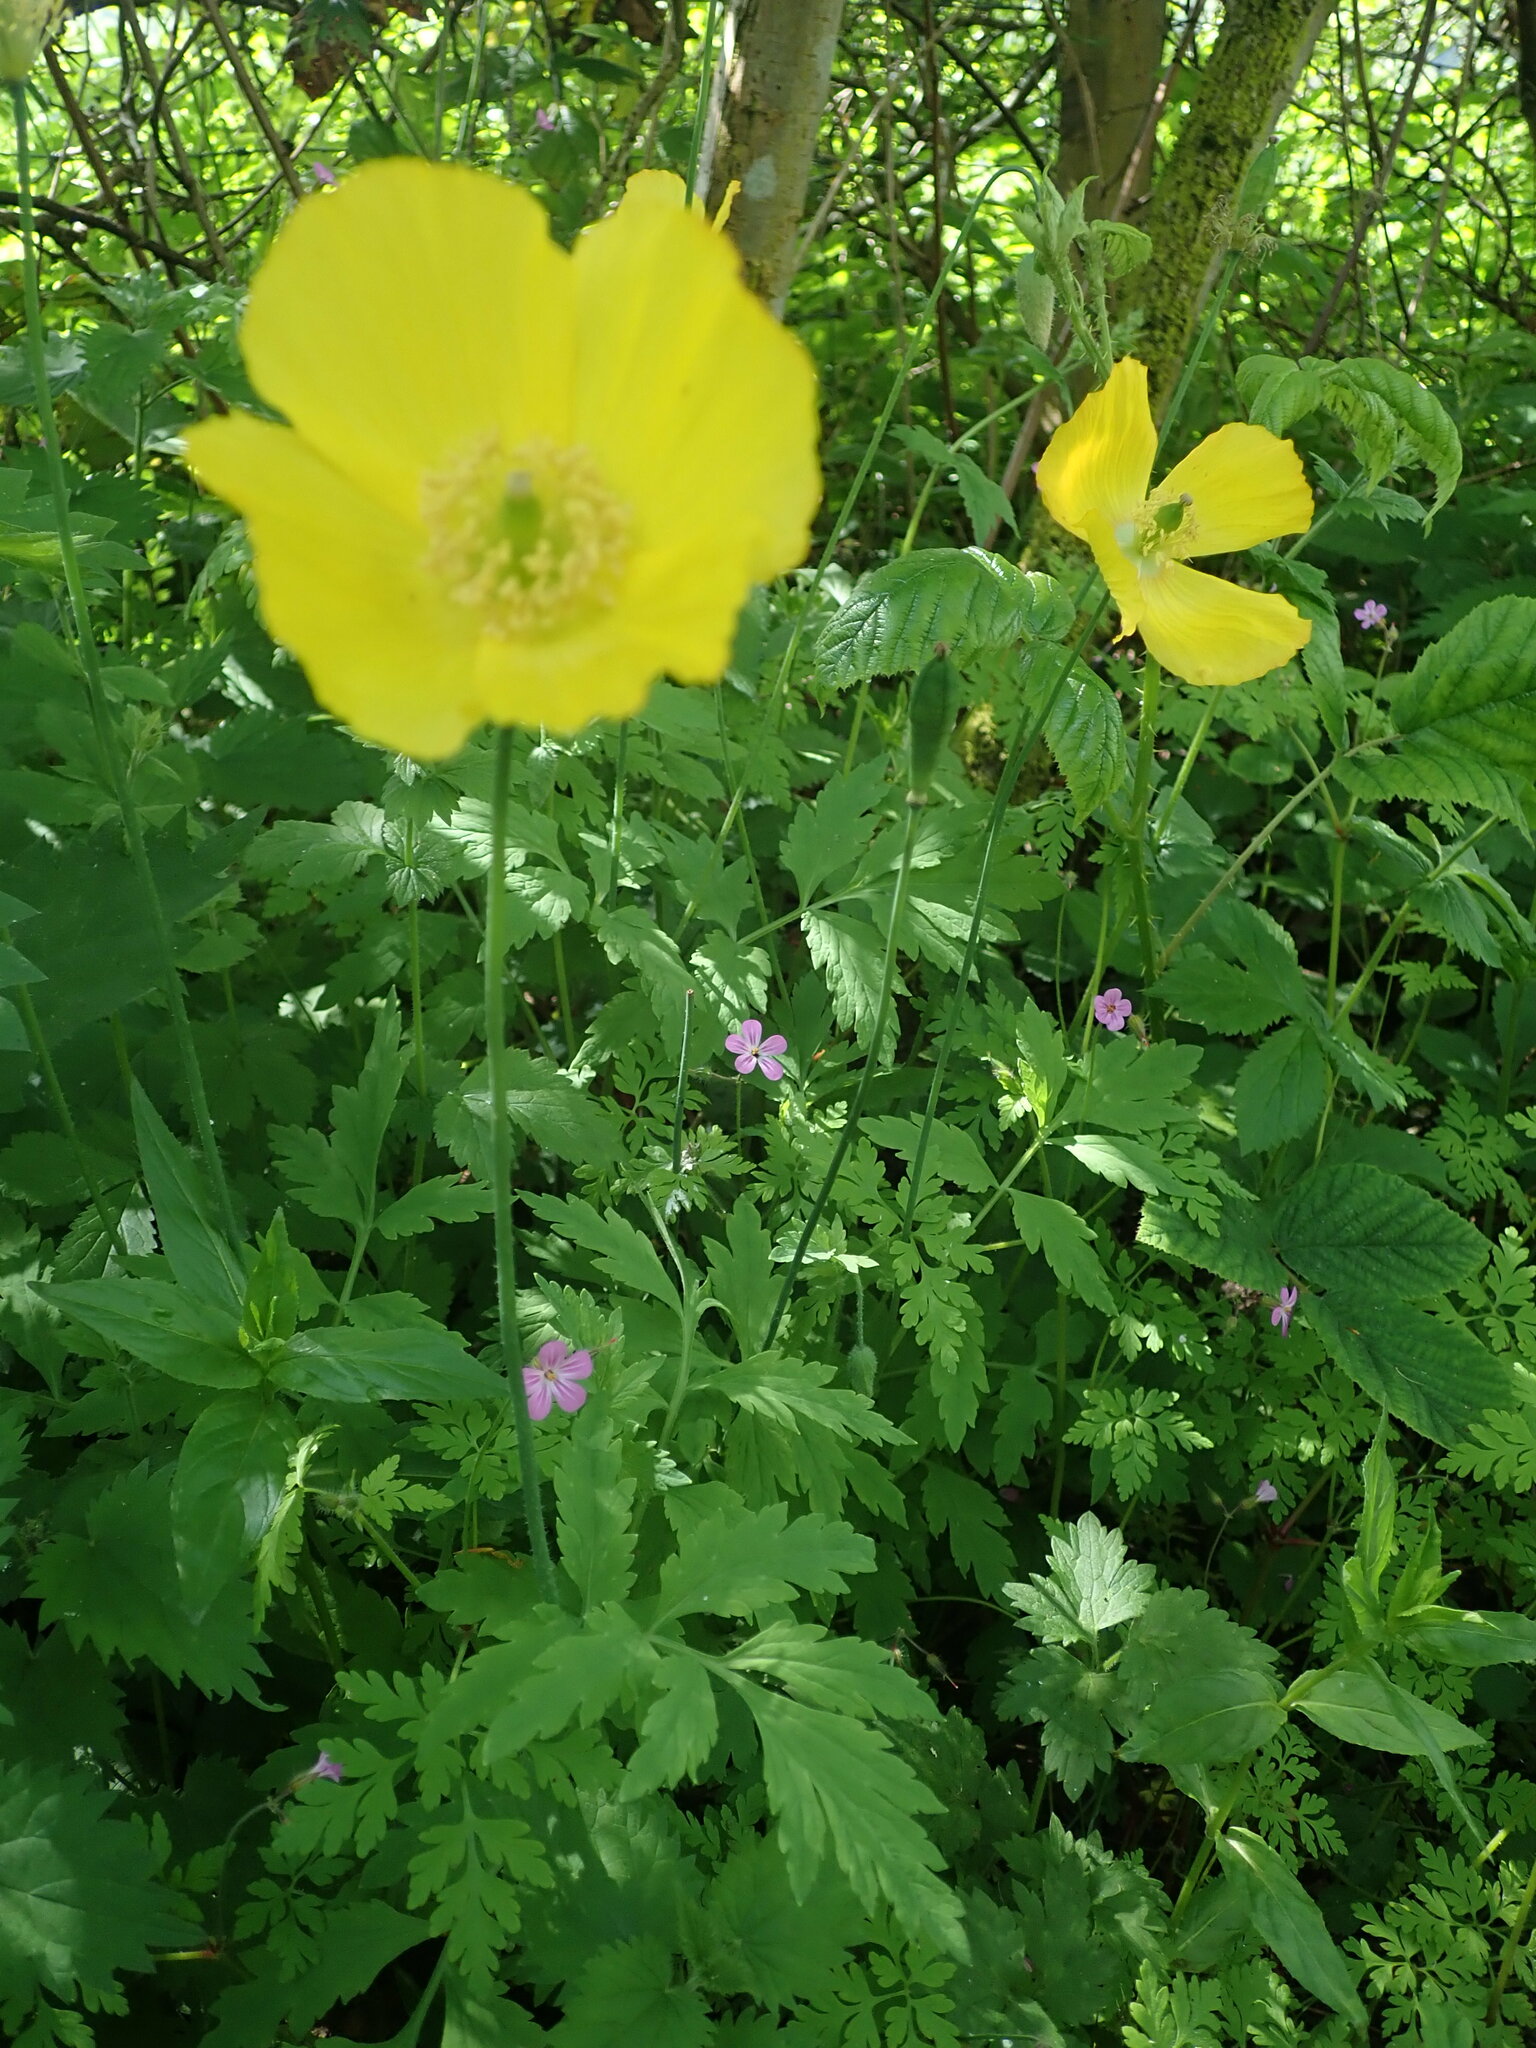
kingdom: Plantae
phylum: Tracheophyta
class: Magnoliopsida
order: Ranunculales
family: Papaveraceae
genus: Papaver
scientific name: Papaver cambricum
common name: Poppy
